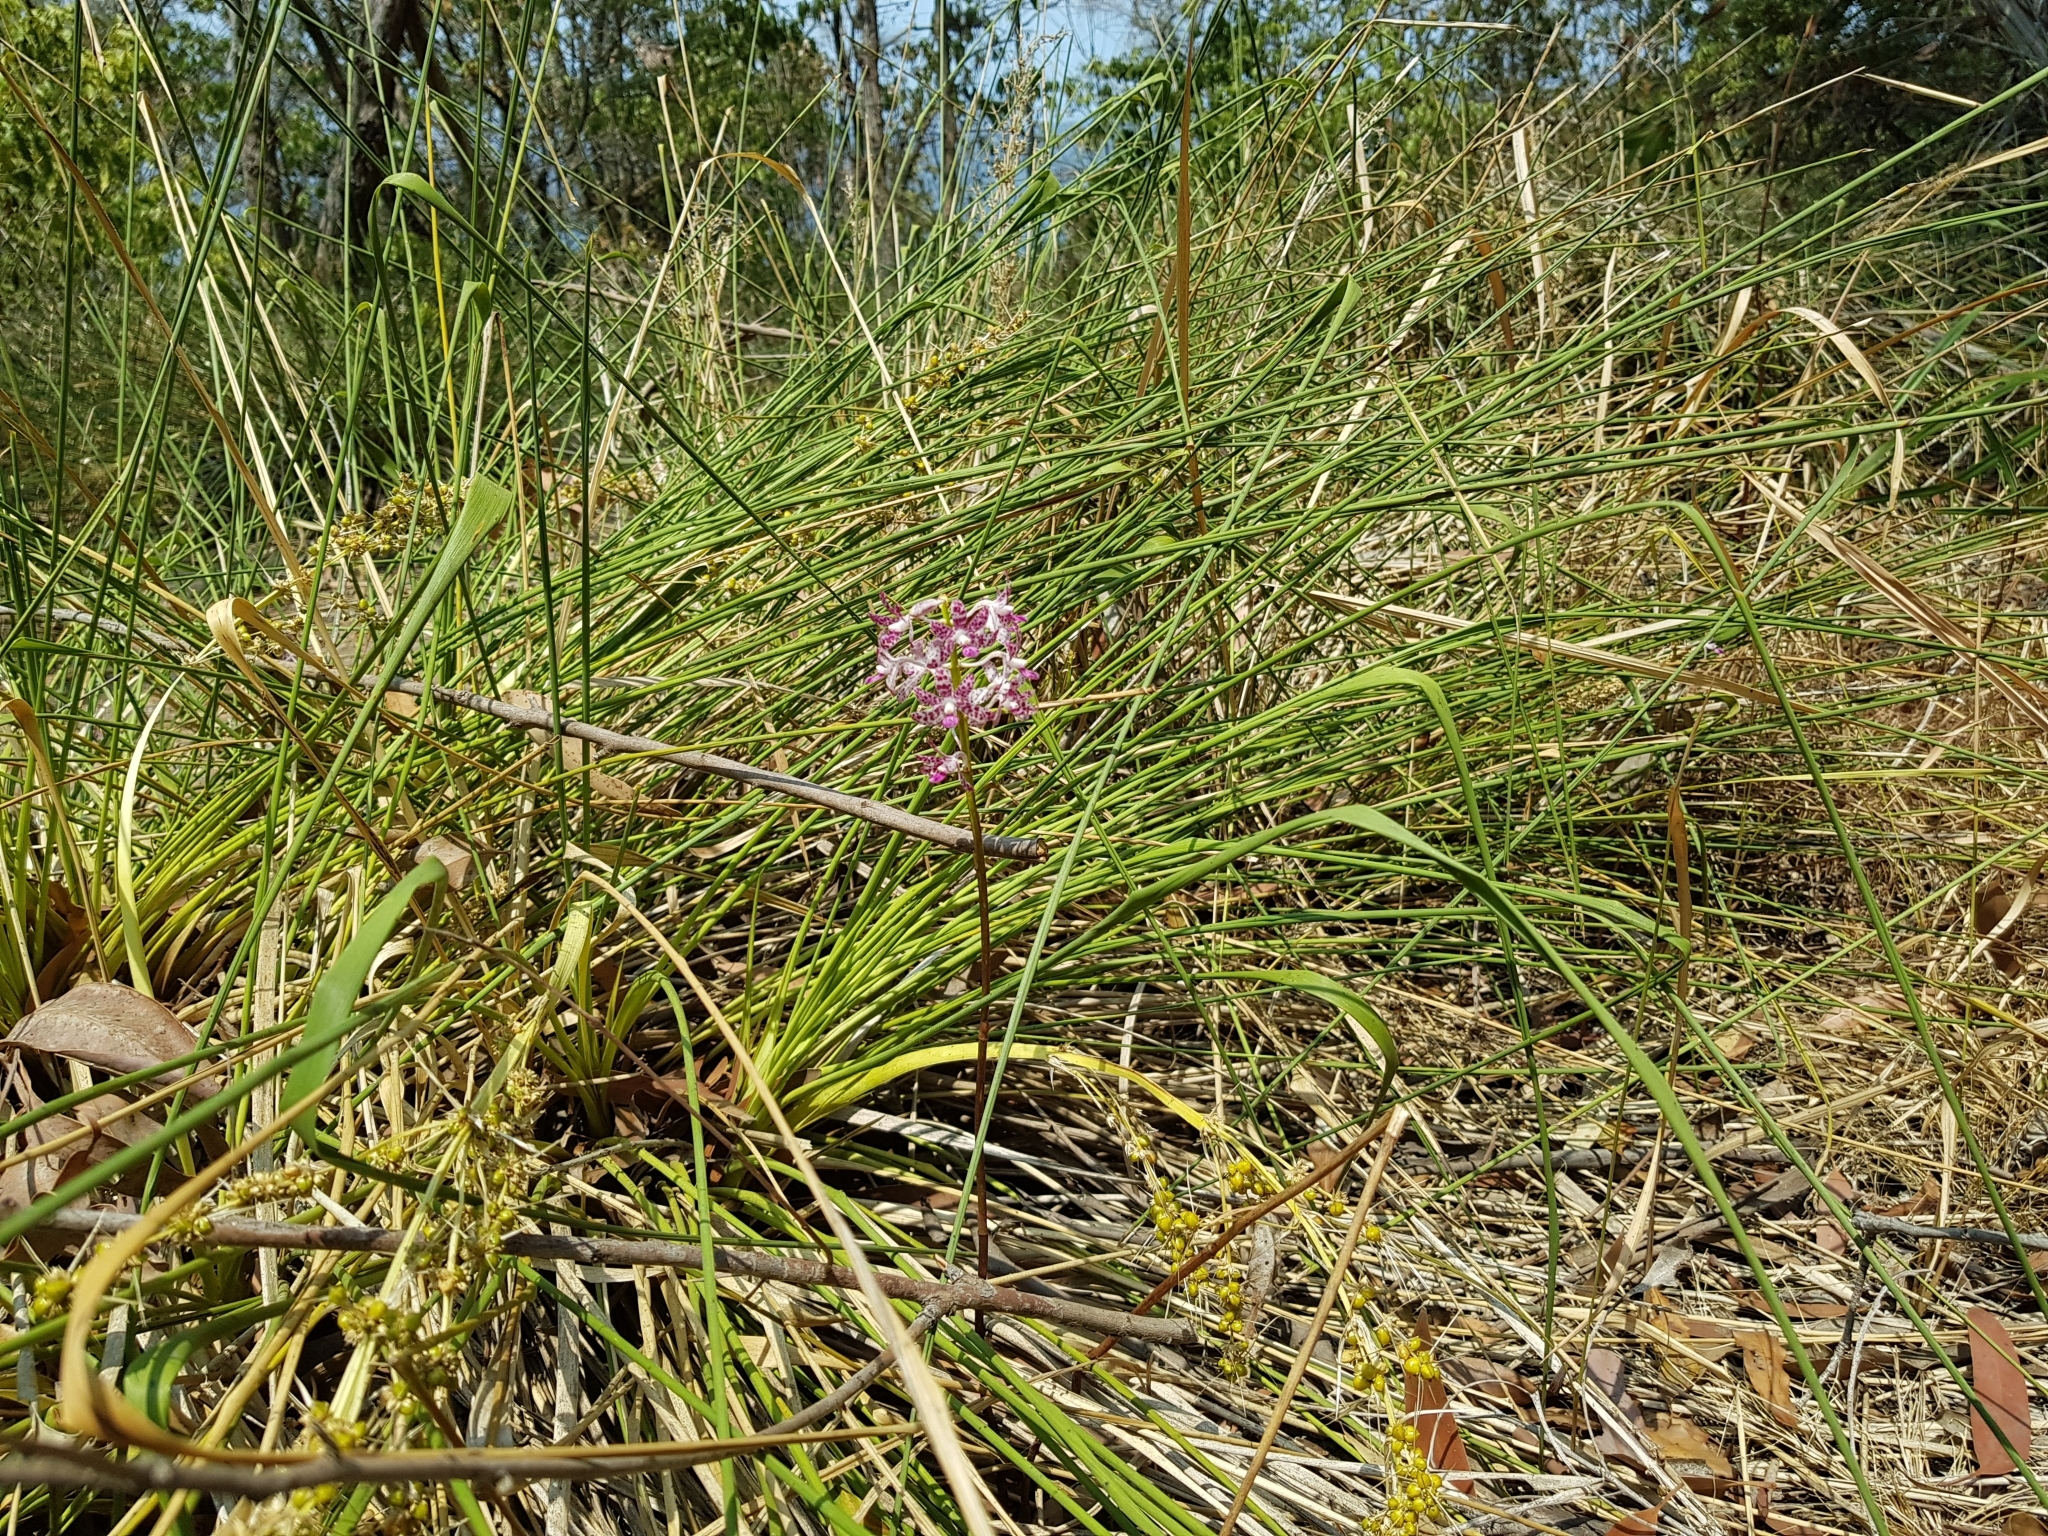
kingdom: Plantae
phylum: Tracheophyta
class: Liliopsida
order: Asparagales
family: Orchidaceae
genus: Dipodium
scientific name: Dipodium variegatum
